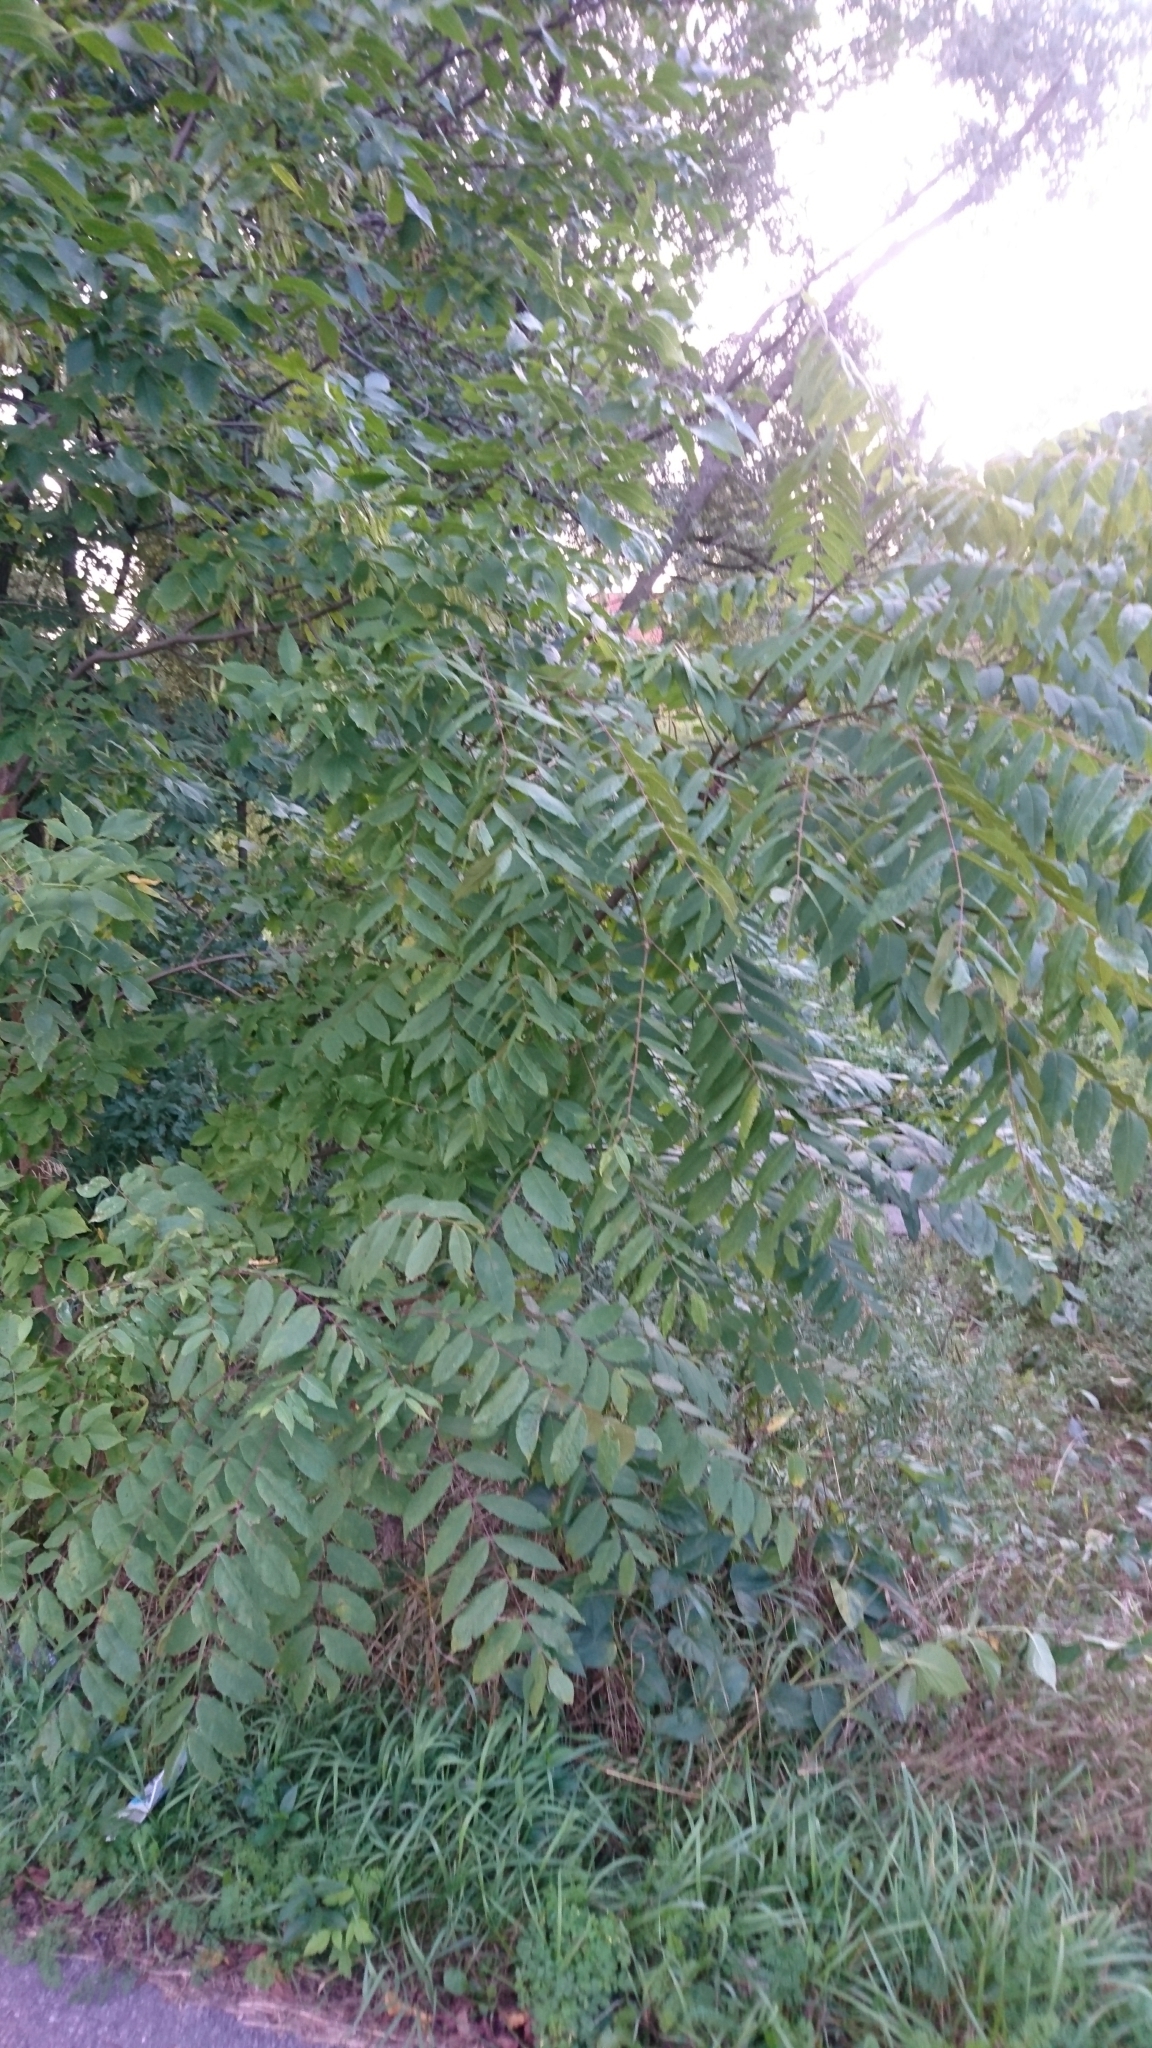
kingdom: Plantae
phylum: Tracheophyta
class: Magnoliopsida
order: Fagales
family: Juglandaceae
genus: Juglans
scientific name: Juglans nigra
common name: Black walnut
